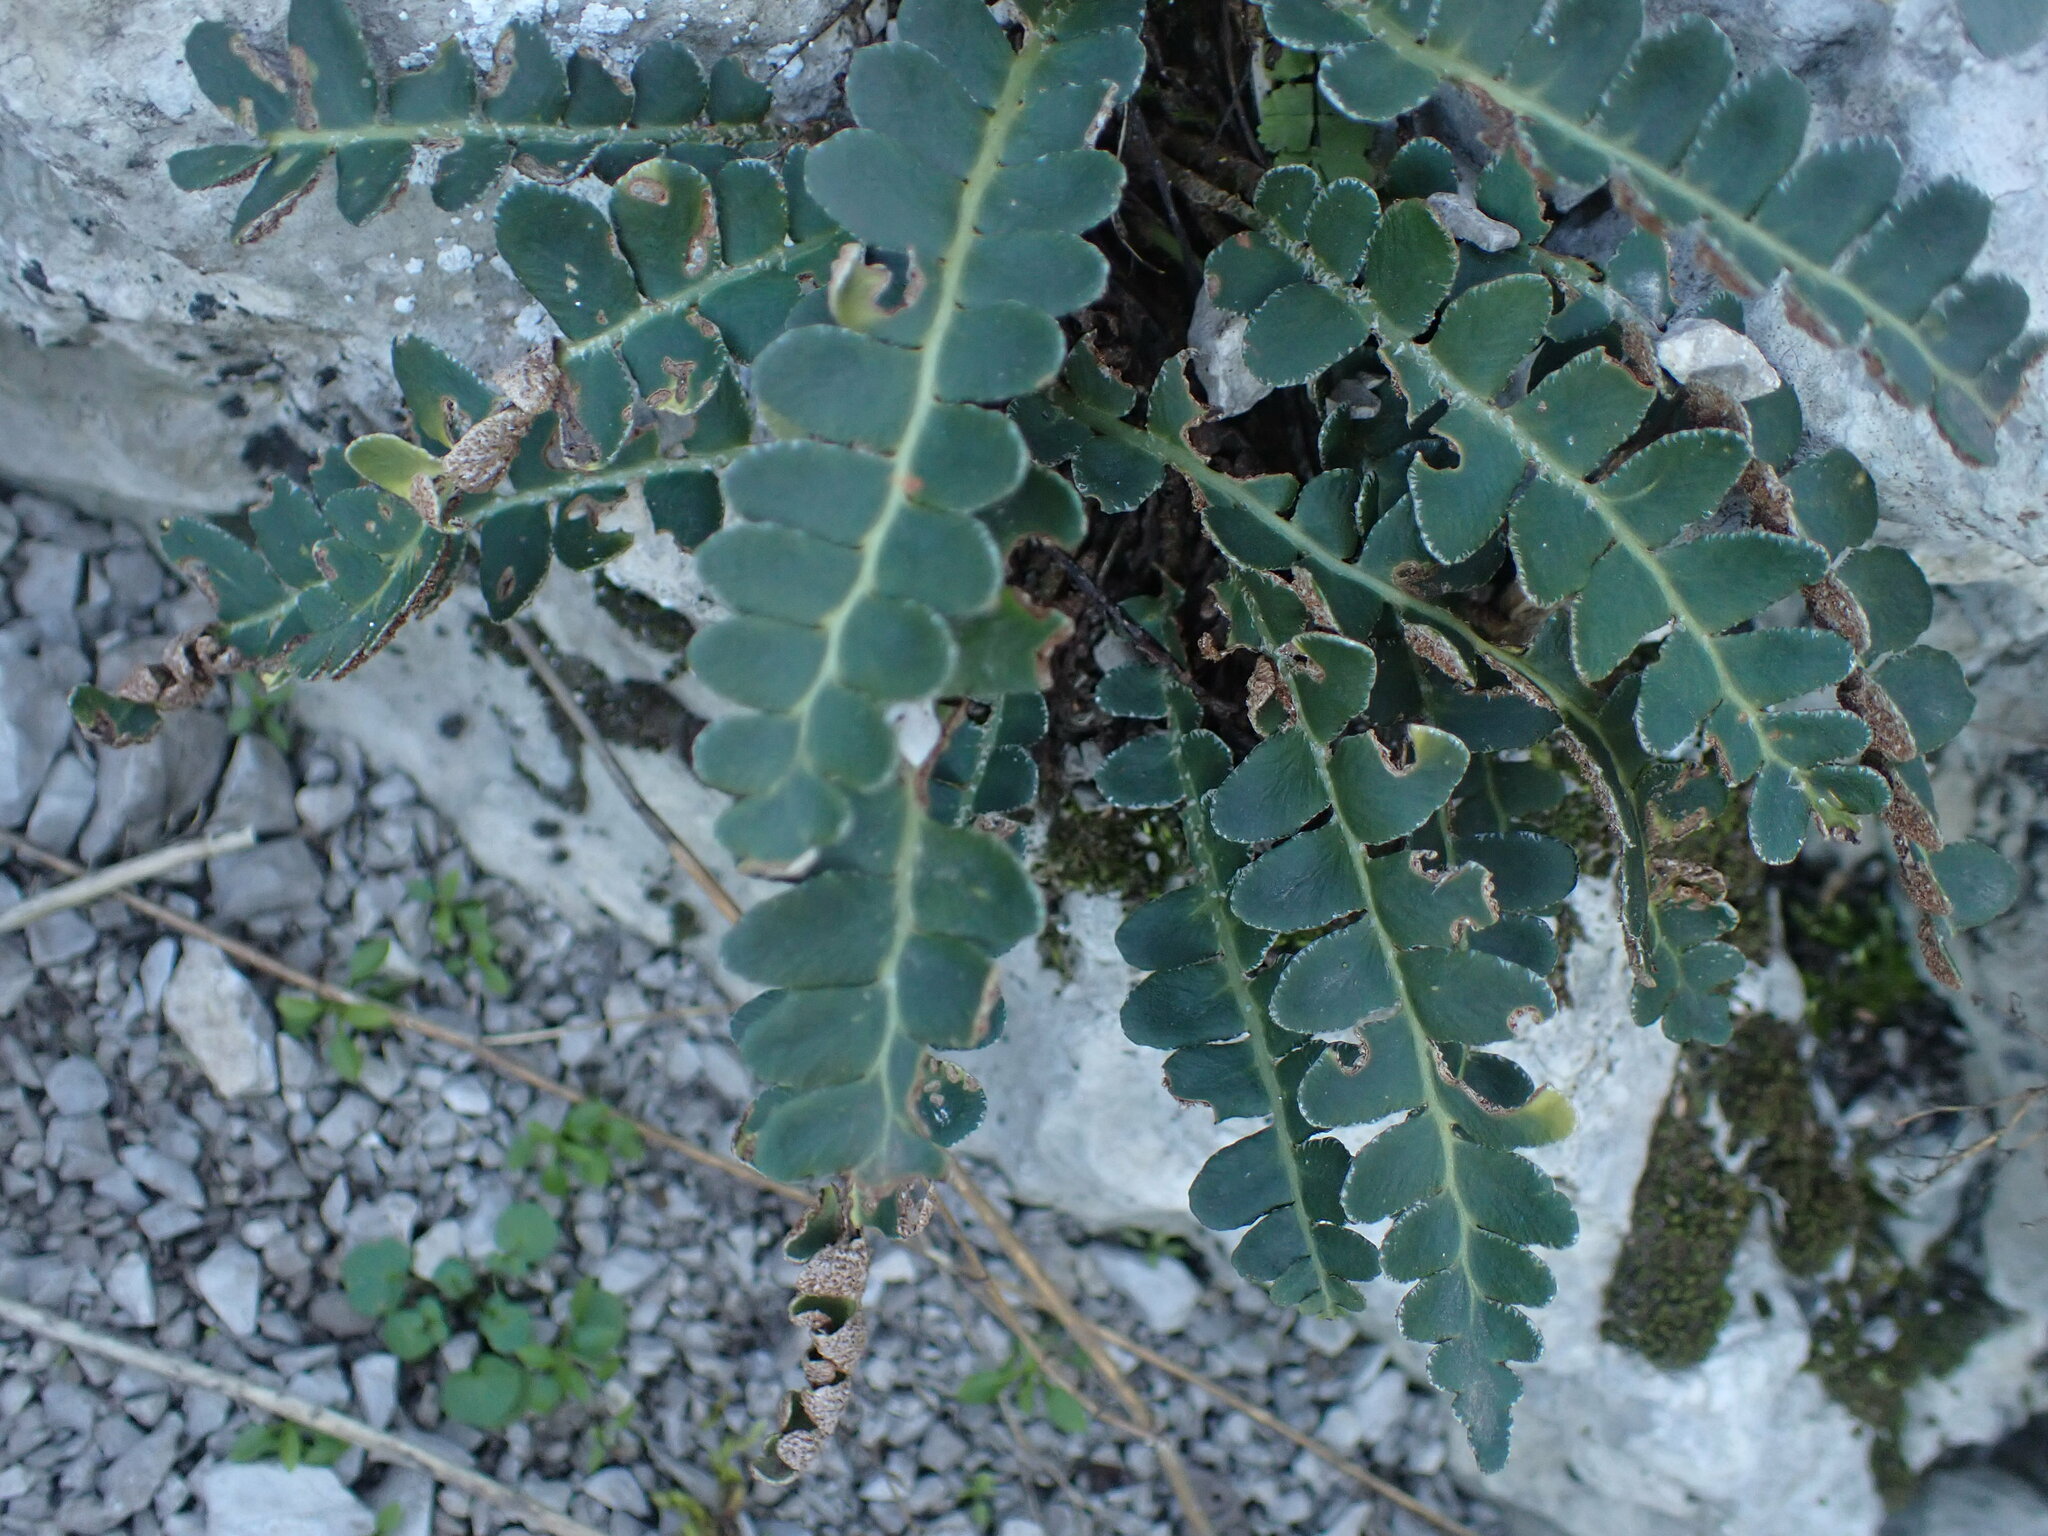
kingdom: Plantae
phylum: Tracheophyta
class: Polypodiopsida
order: Polypodiales
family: Aspleniaceae
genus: Asplenium
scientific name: Asplenium ceterach
